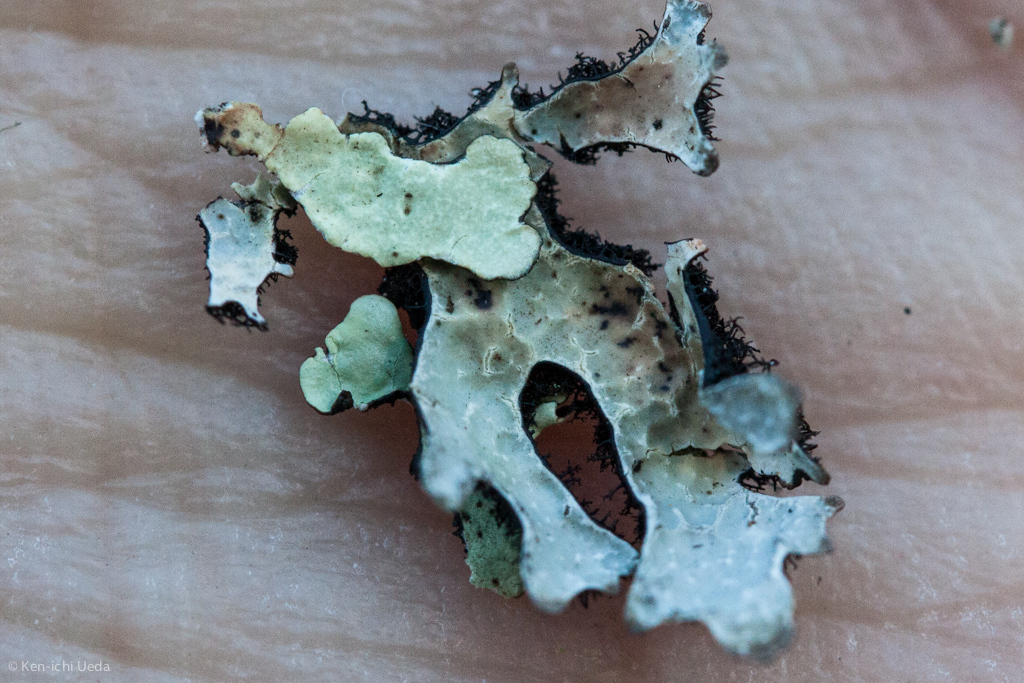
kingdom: Fungi
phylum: Ascomycota
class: Lecanoromycetes
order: Lecanorales
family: Parmeliaceae
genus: Parmelia
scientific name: Parmelia sulcata
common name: Netted shield lichen
